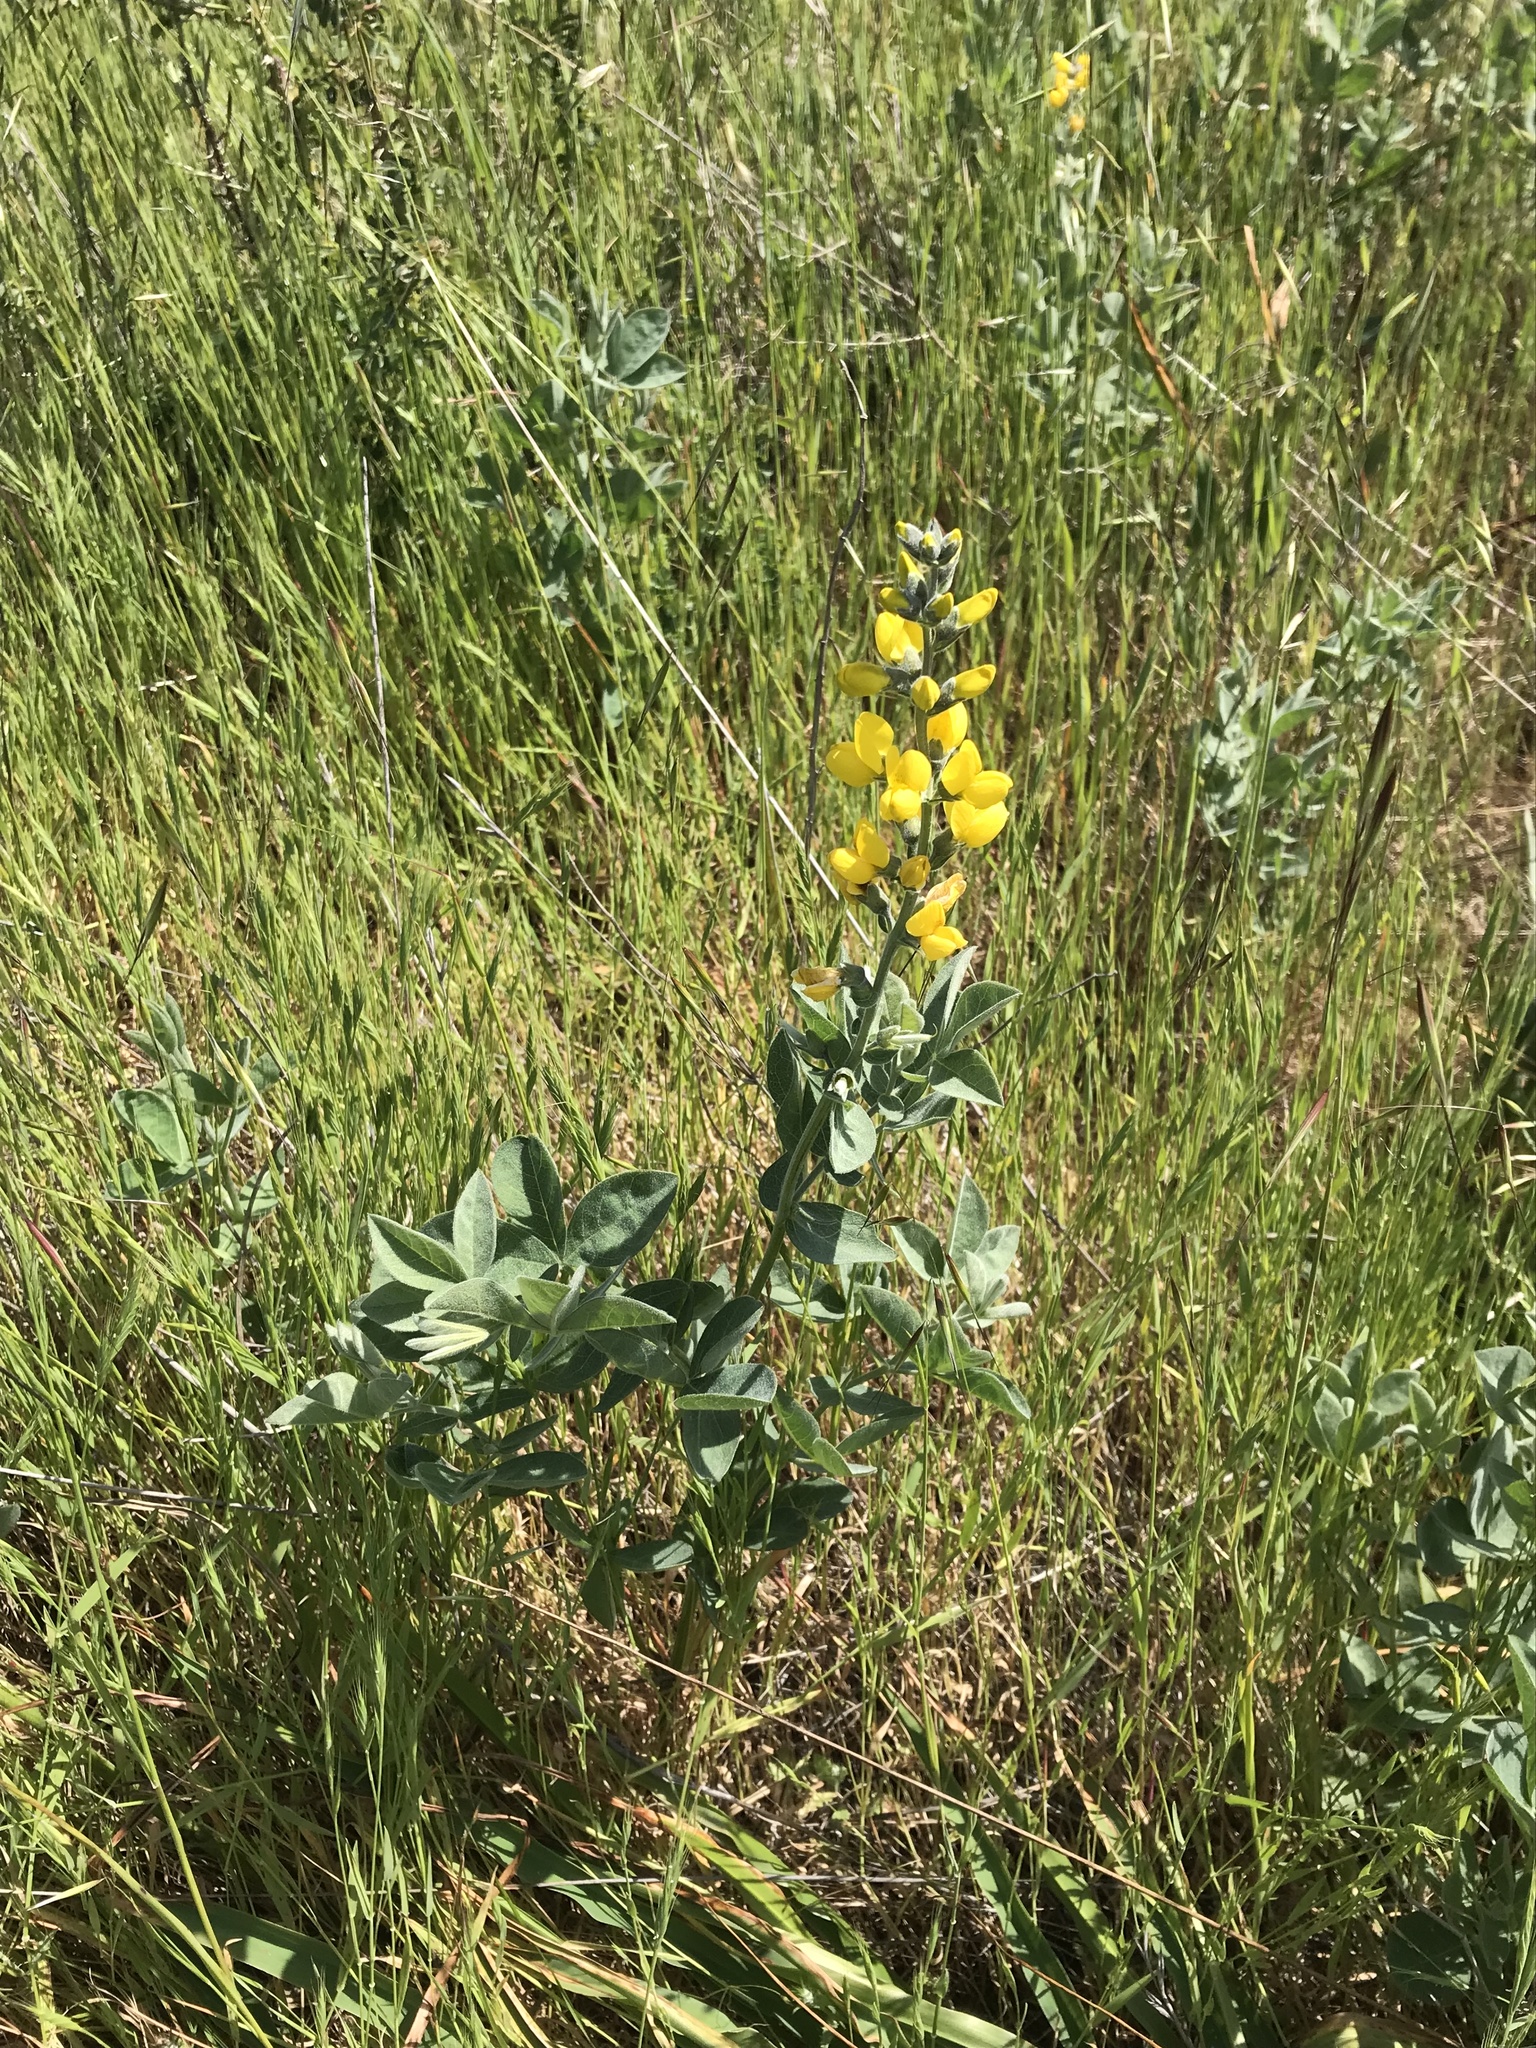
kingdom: Plantae
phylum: Tracheophyta
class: Magnoliopsida
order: Fabales
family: Fabaceae
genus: Thermopsis
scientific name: Thermopsis californica
